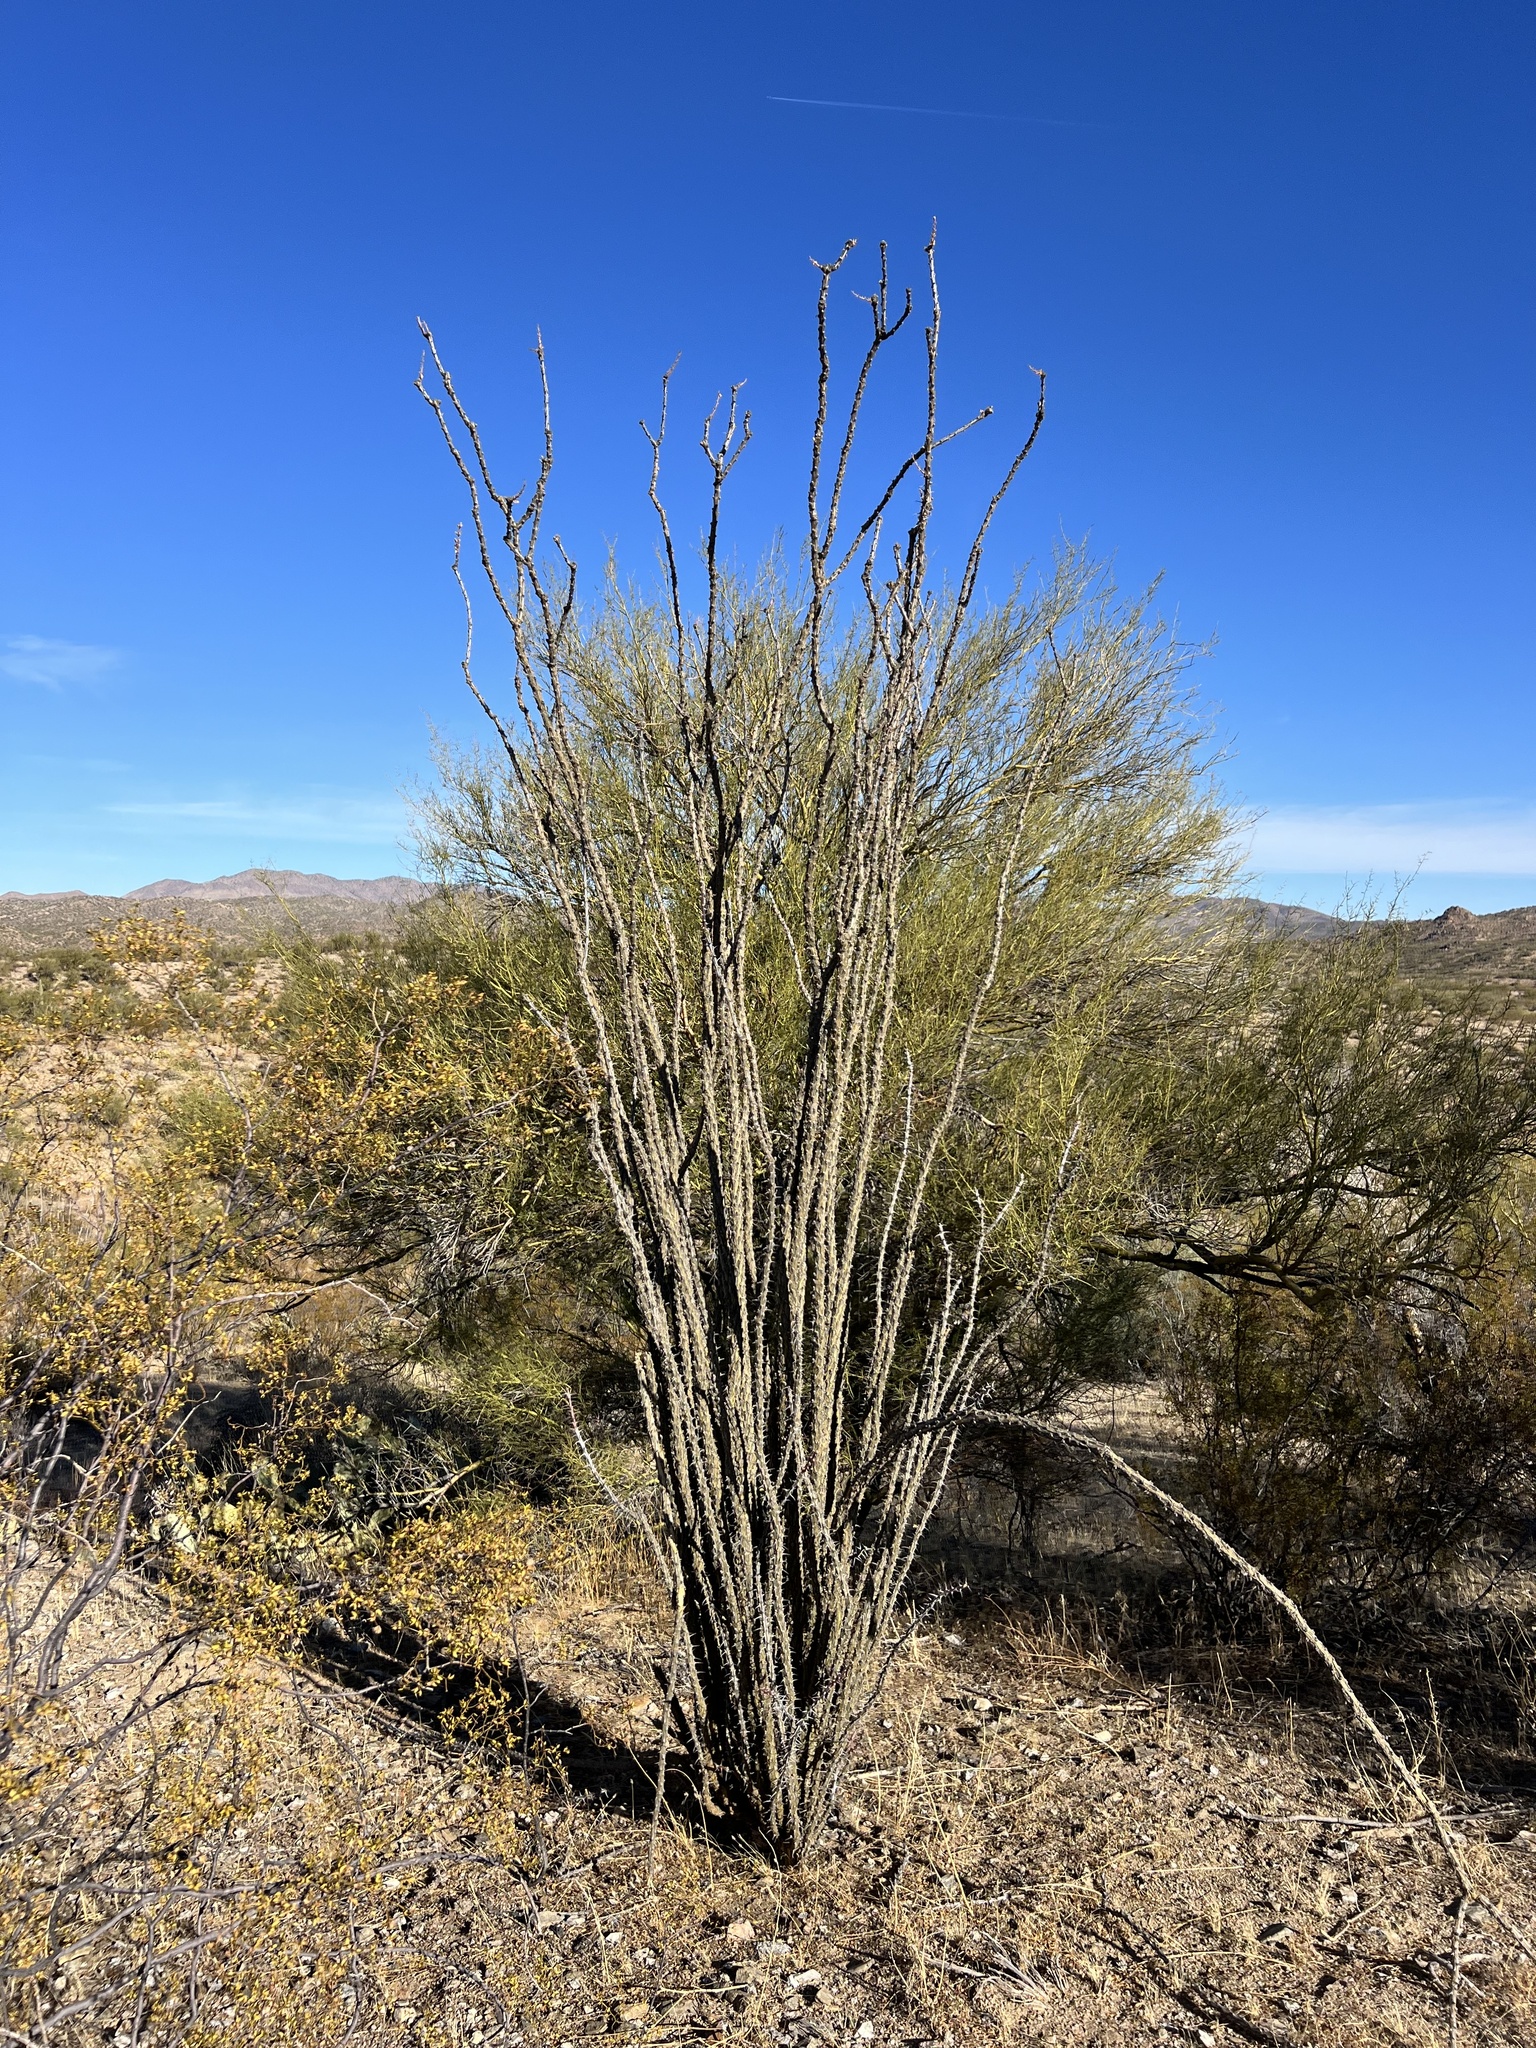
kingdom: Plantae
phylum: Tracheophyta
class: Magnoliopsida
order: Ericales
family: Fouquieriaceae
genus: Fouquieria
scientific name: Fouquieria splendens
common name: Vine-cactus
